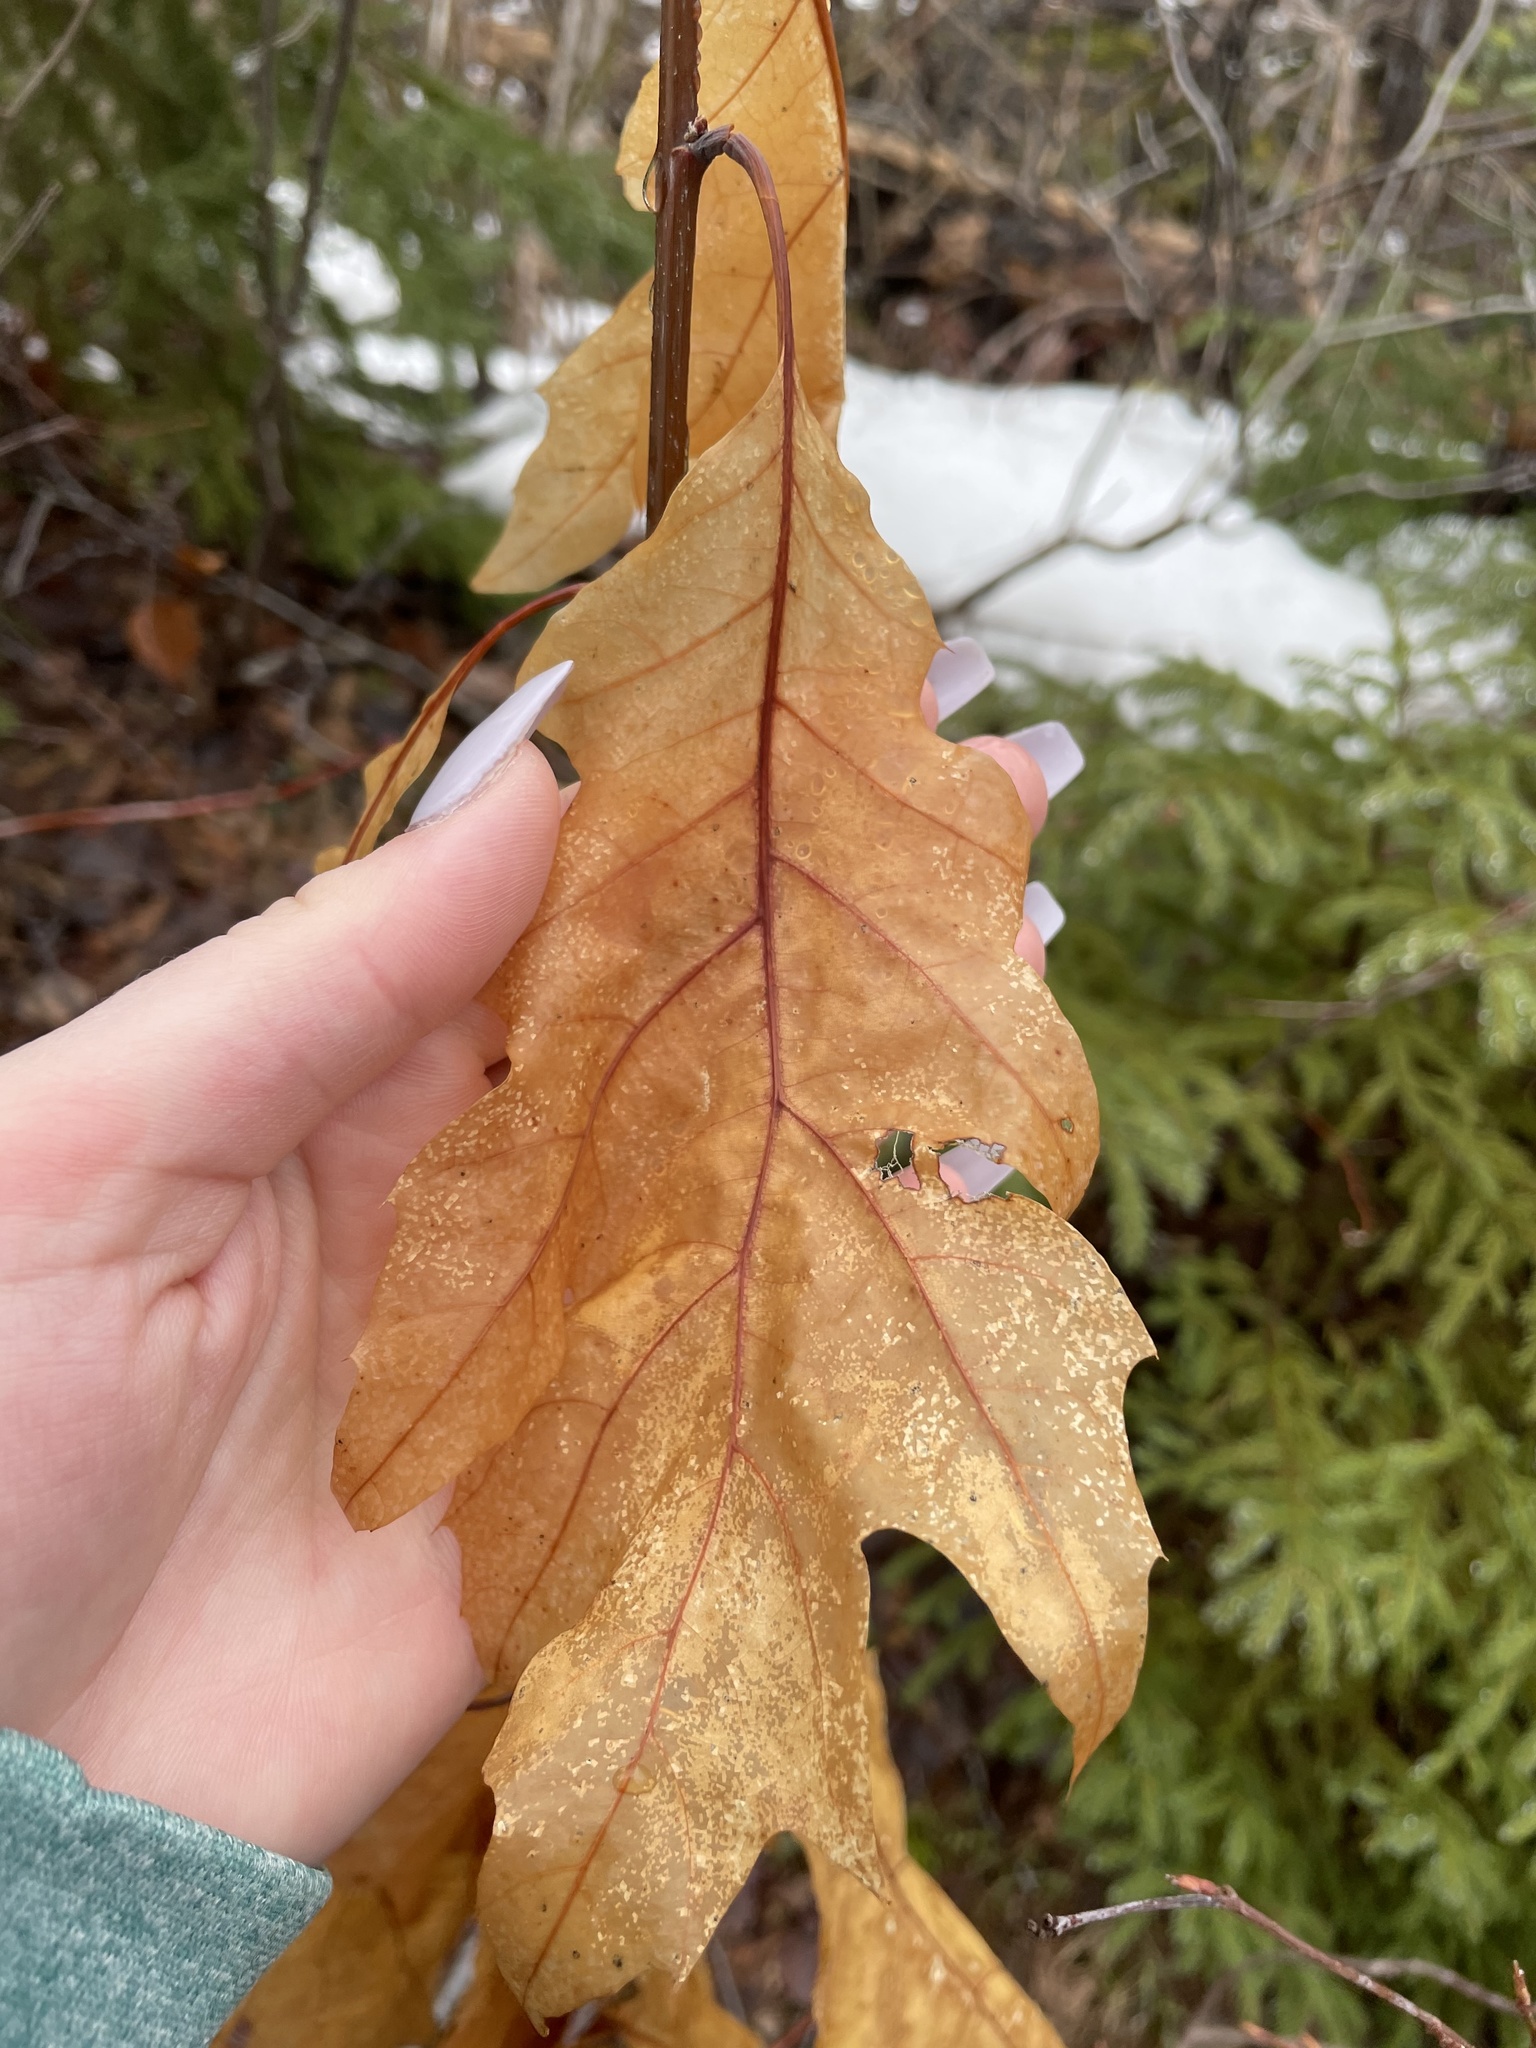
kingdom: Plantae
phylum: Tracheophyta
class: Magnoliopsida
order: Fagales
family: Fagaceae
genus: Quercus
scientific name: Quercus rubra
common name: Red oak
